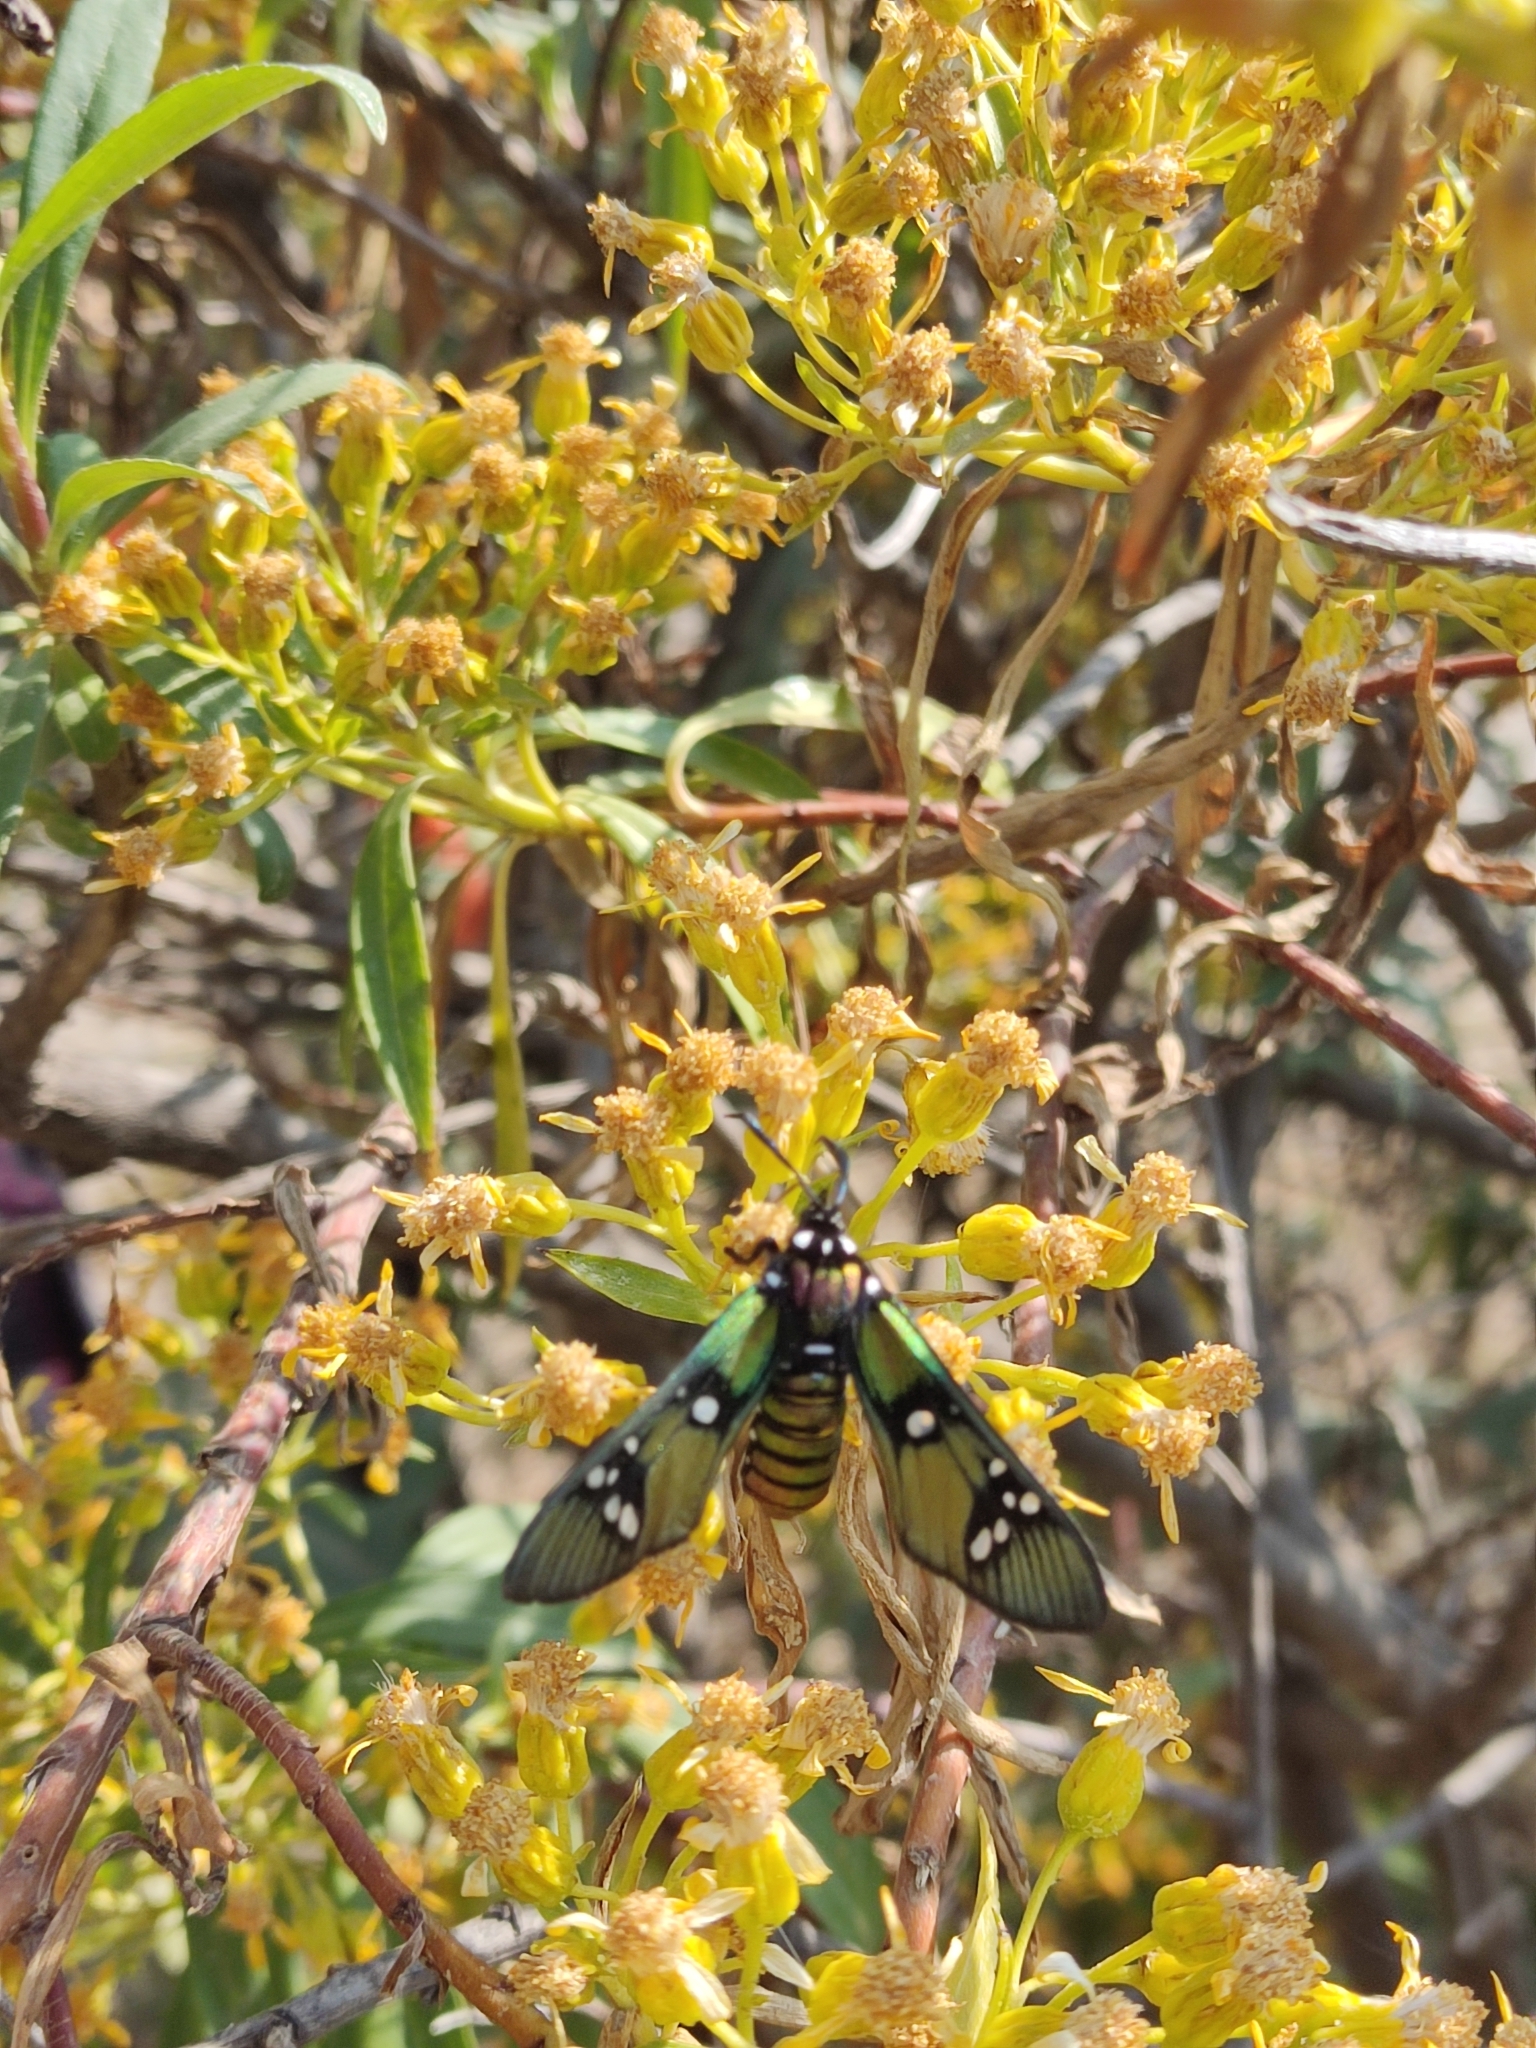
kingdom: Animalia
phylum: Arthropoda
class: Insecta
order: Lepidoptera
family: Erebidae
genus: Chrysocale
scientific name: Chrysocale principalis
